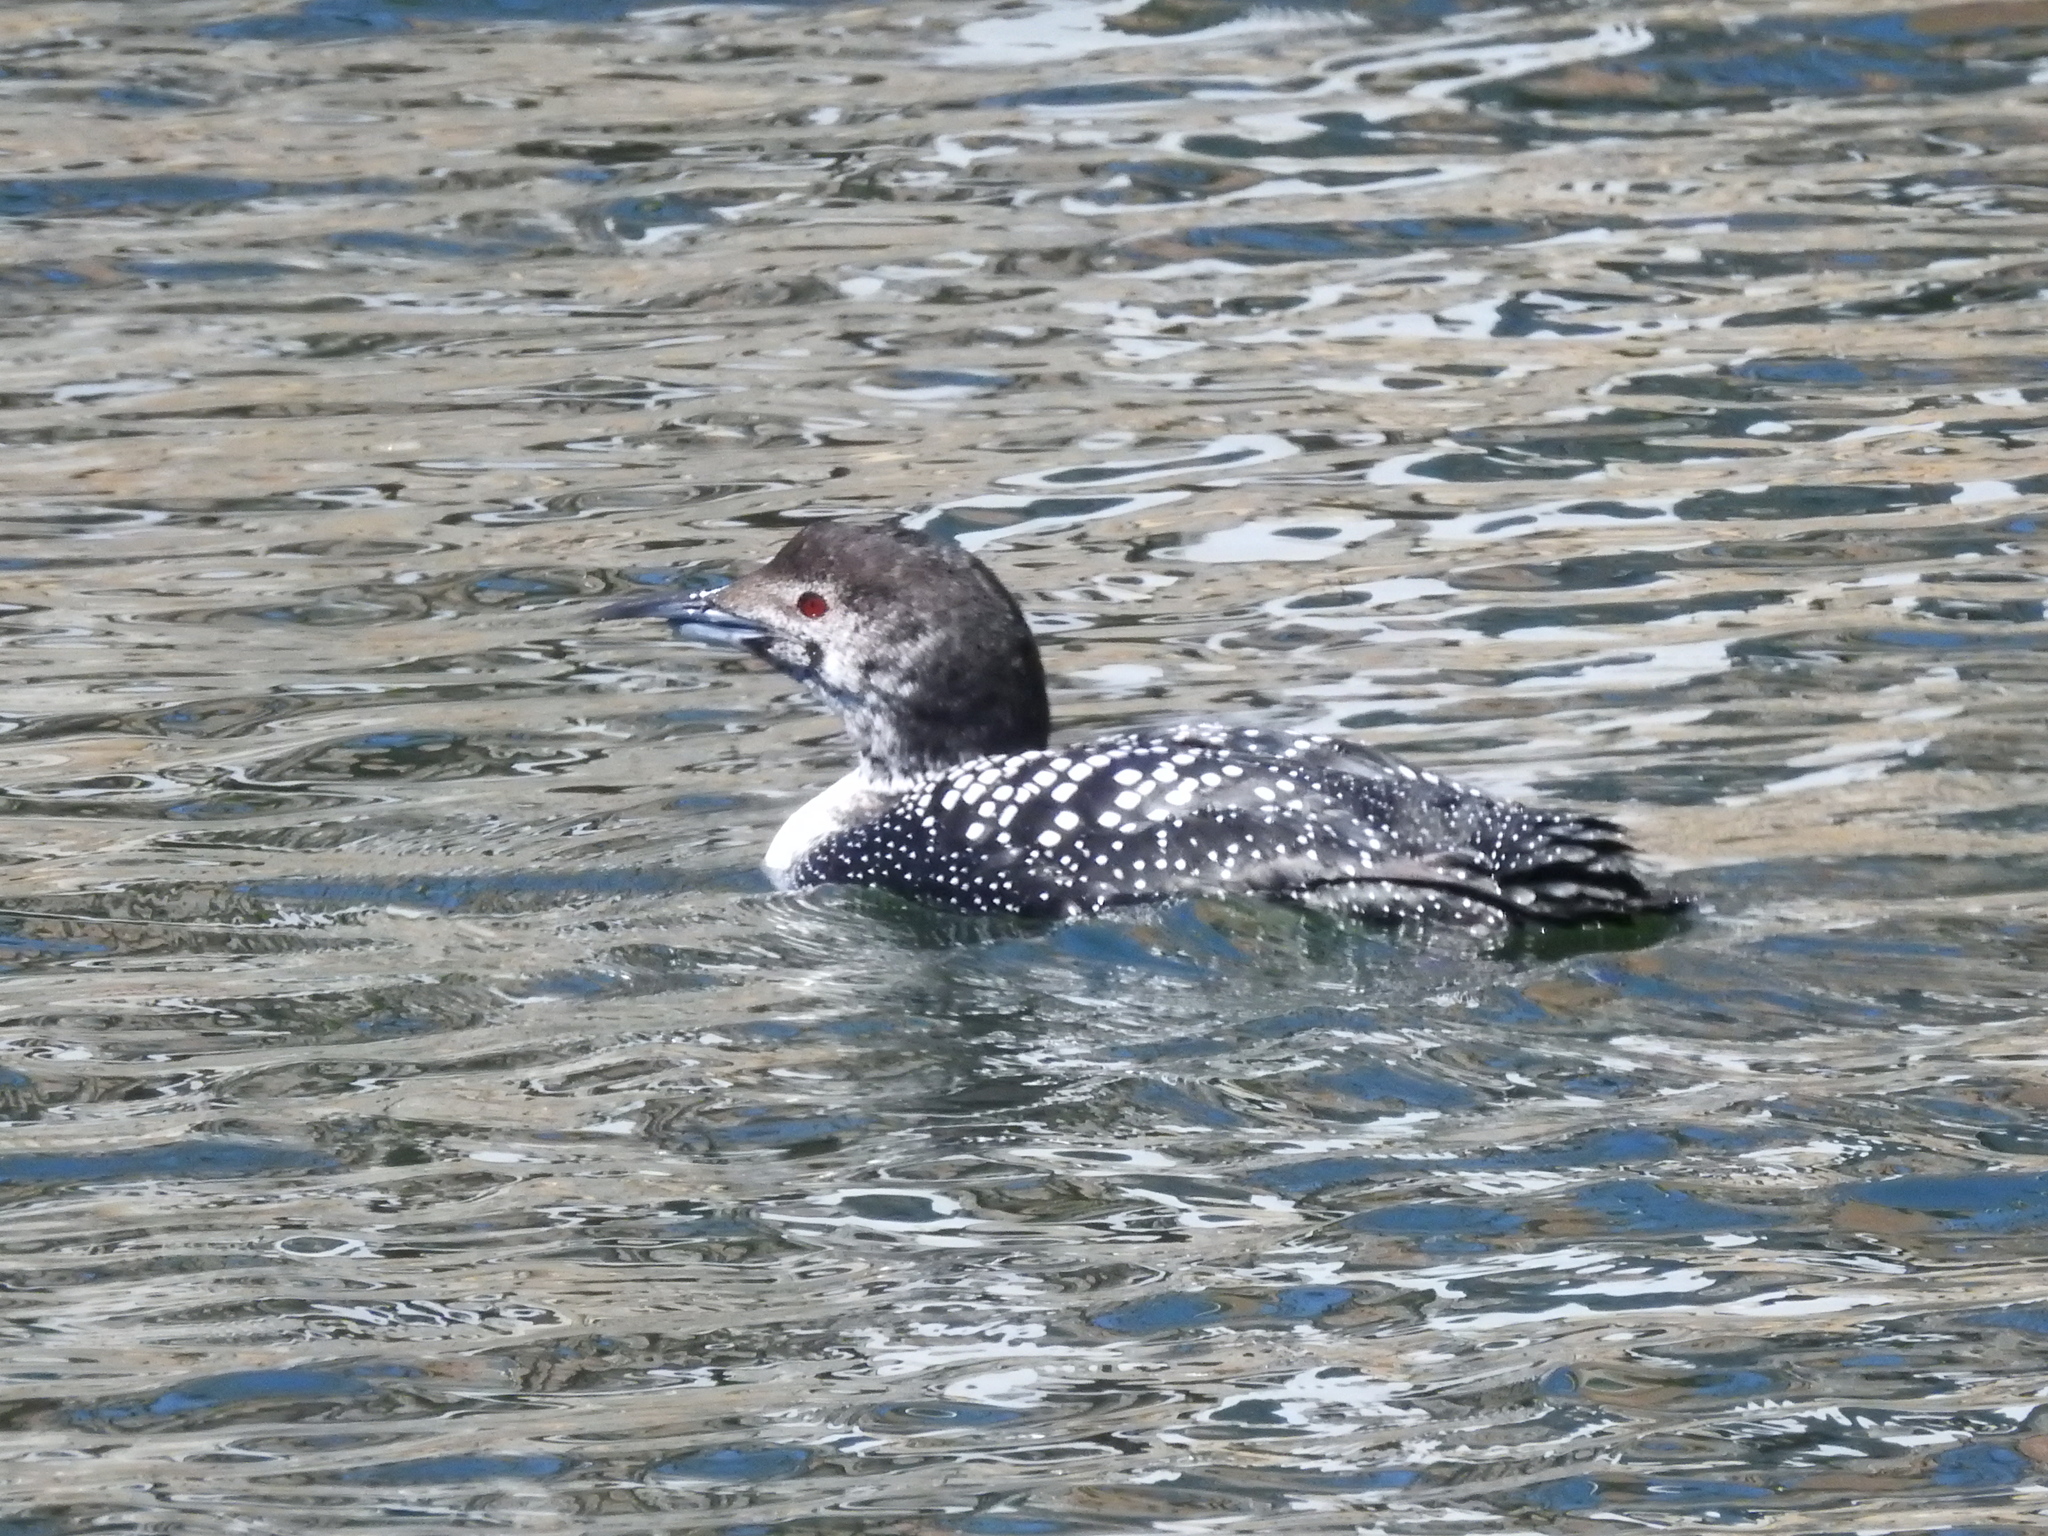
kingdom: Animalia
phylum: Chordata
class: Aves
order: Gaviiformes
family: Gaviidae
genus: Gavia
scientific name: Gavia immer
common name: Common loon
